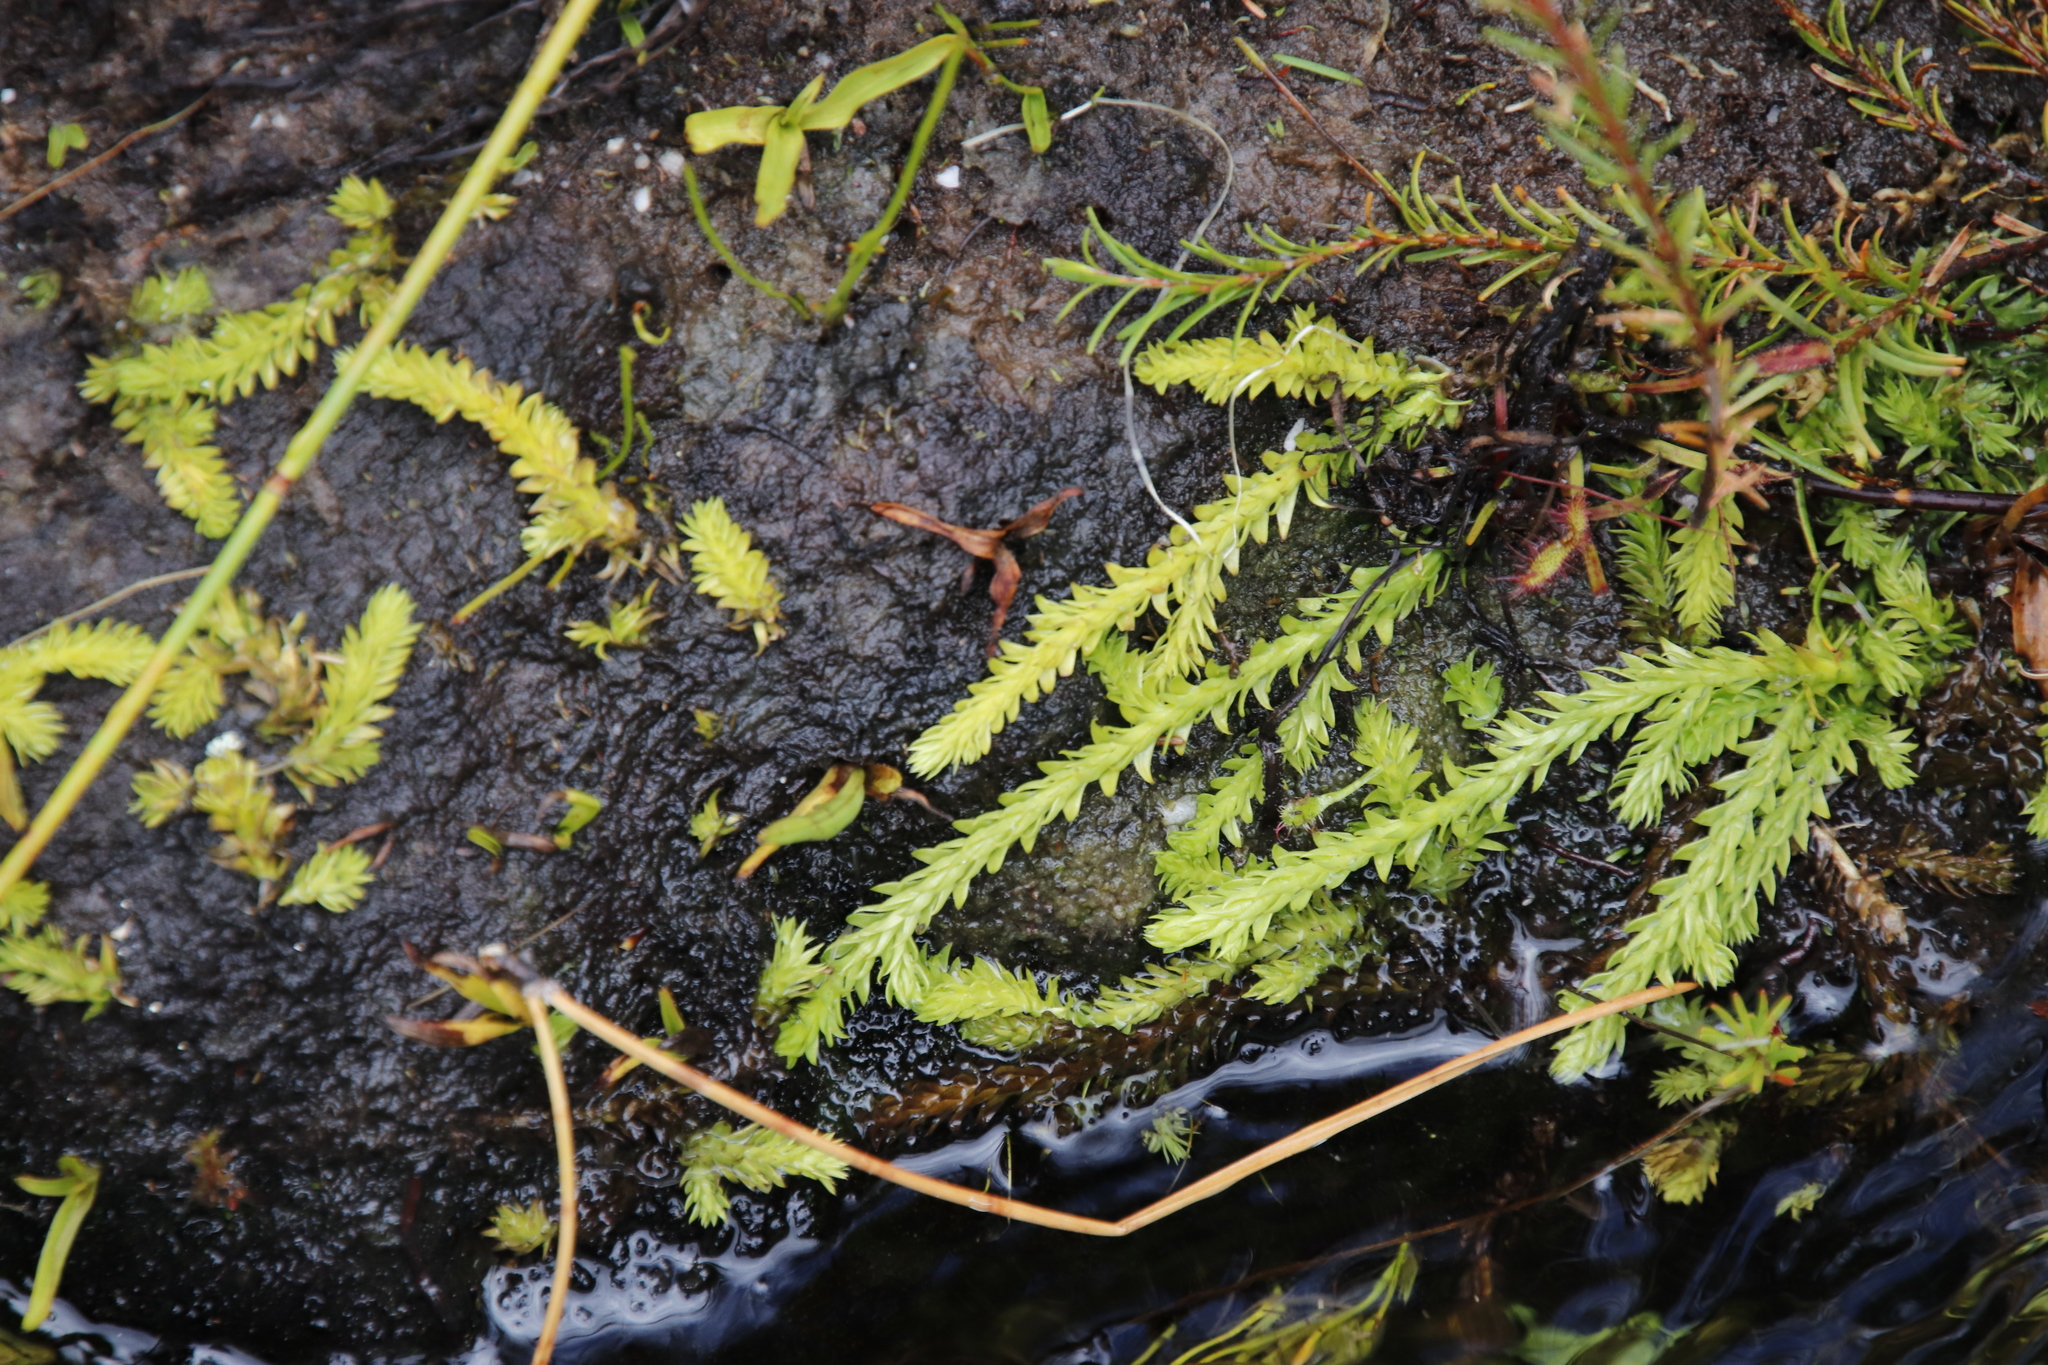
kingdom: Plantae
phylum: Tracheophyta
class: Lycopodiopsida
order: Lycopodiales
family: Lycopodiaceae
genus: Pseudolycopodiella
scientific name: Pseudolycopodiella caroliniana
